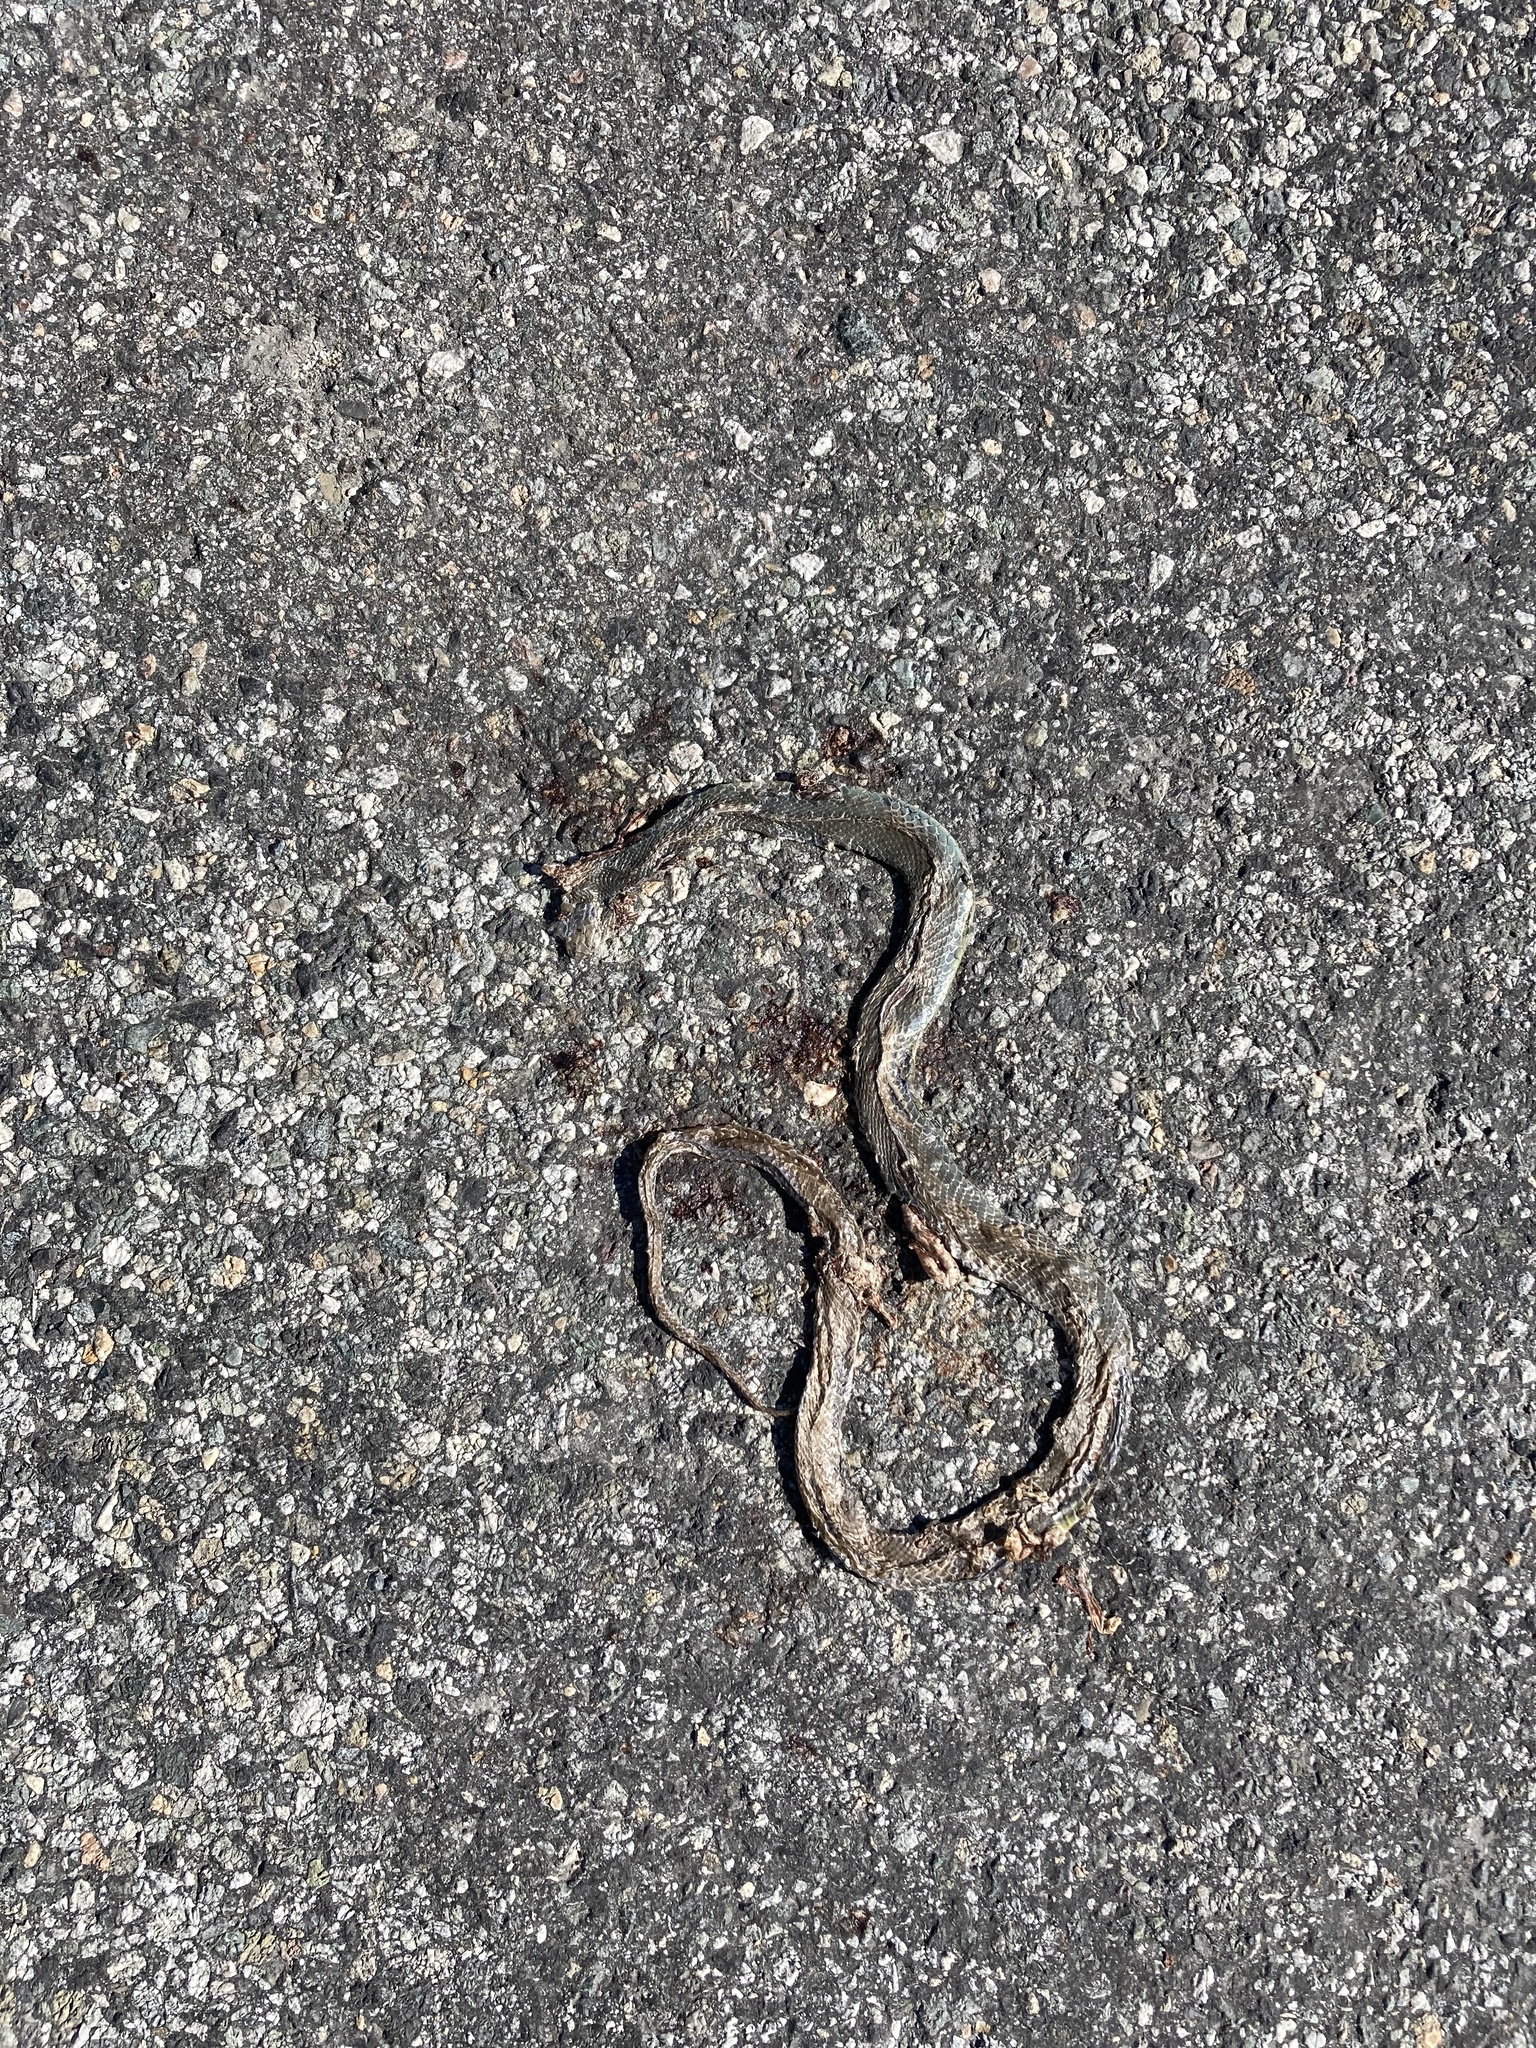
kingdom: Animalia
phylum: Chordata
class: Squamata
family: Colubridae
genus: Coluber
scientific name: Coluber constrictor
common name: Eastern racer
